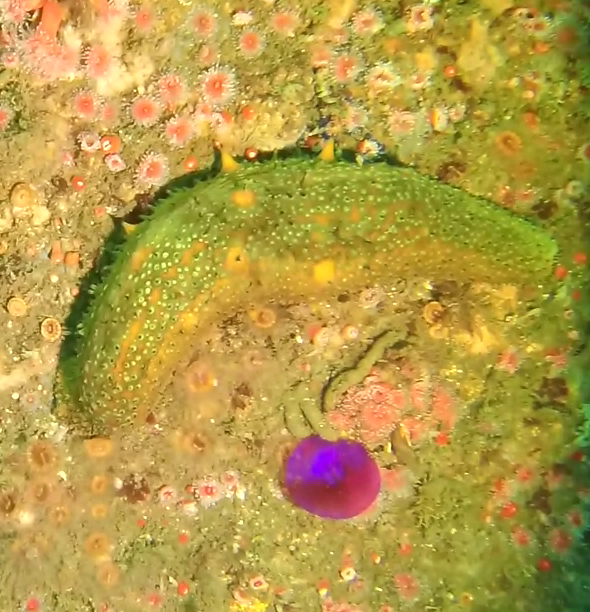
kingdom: Animalia
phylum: Echinodermata
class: Holothuroidea
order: Synallactida
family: Stichopodidae
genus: Apostichopus
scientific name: Apostichopus parvimensis
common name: Warty sea cucumber
